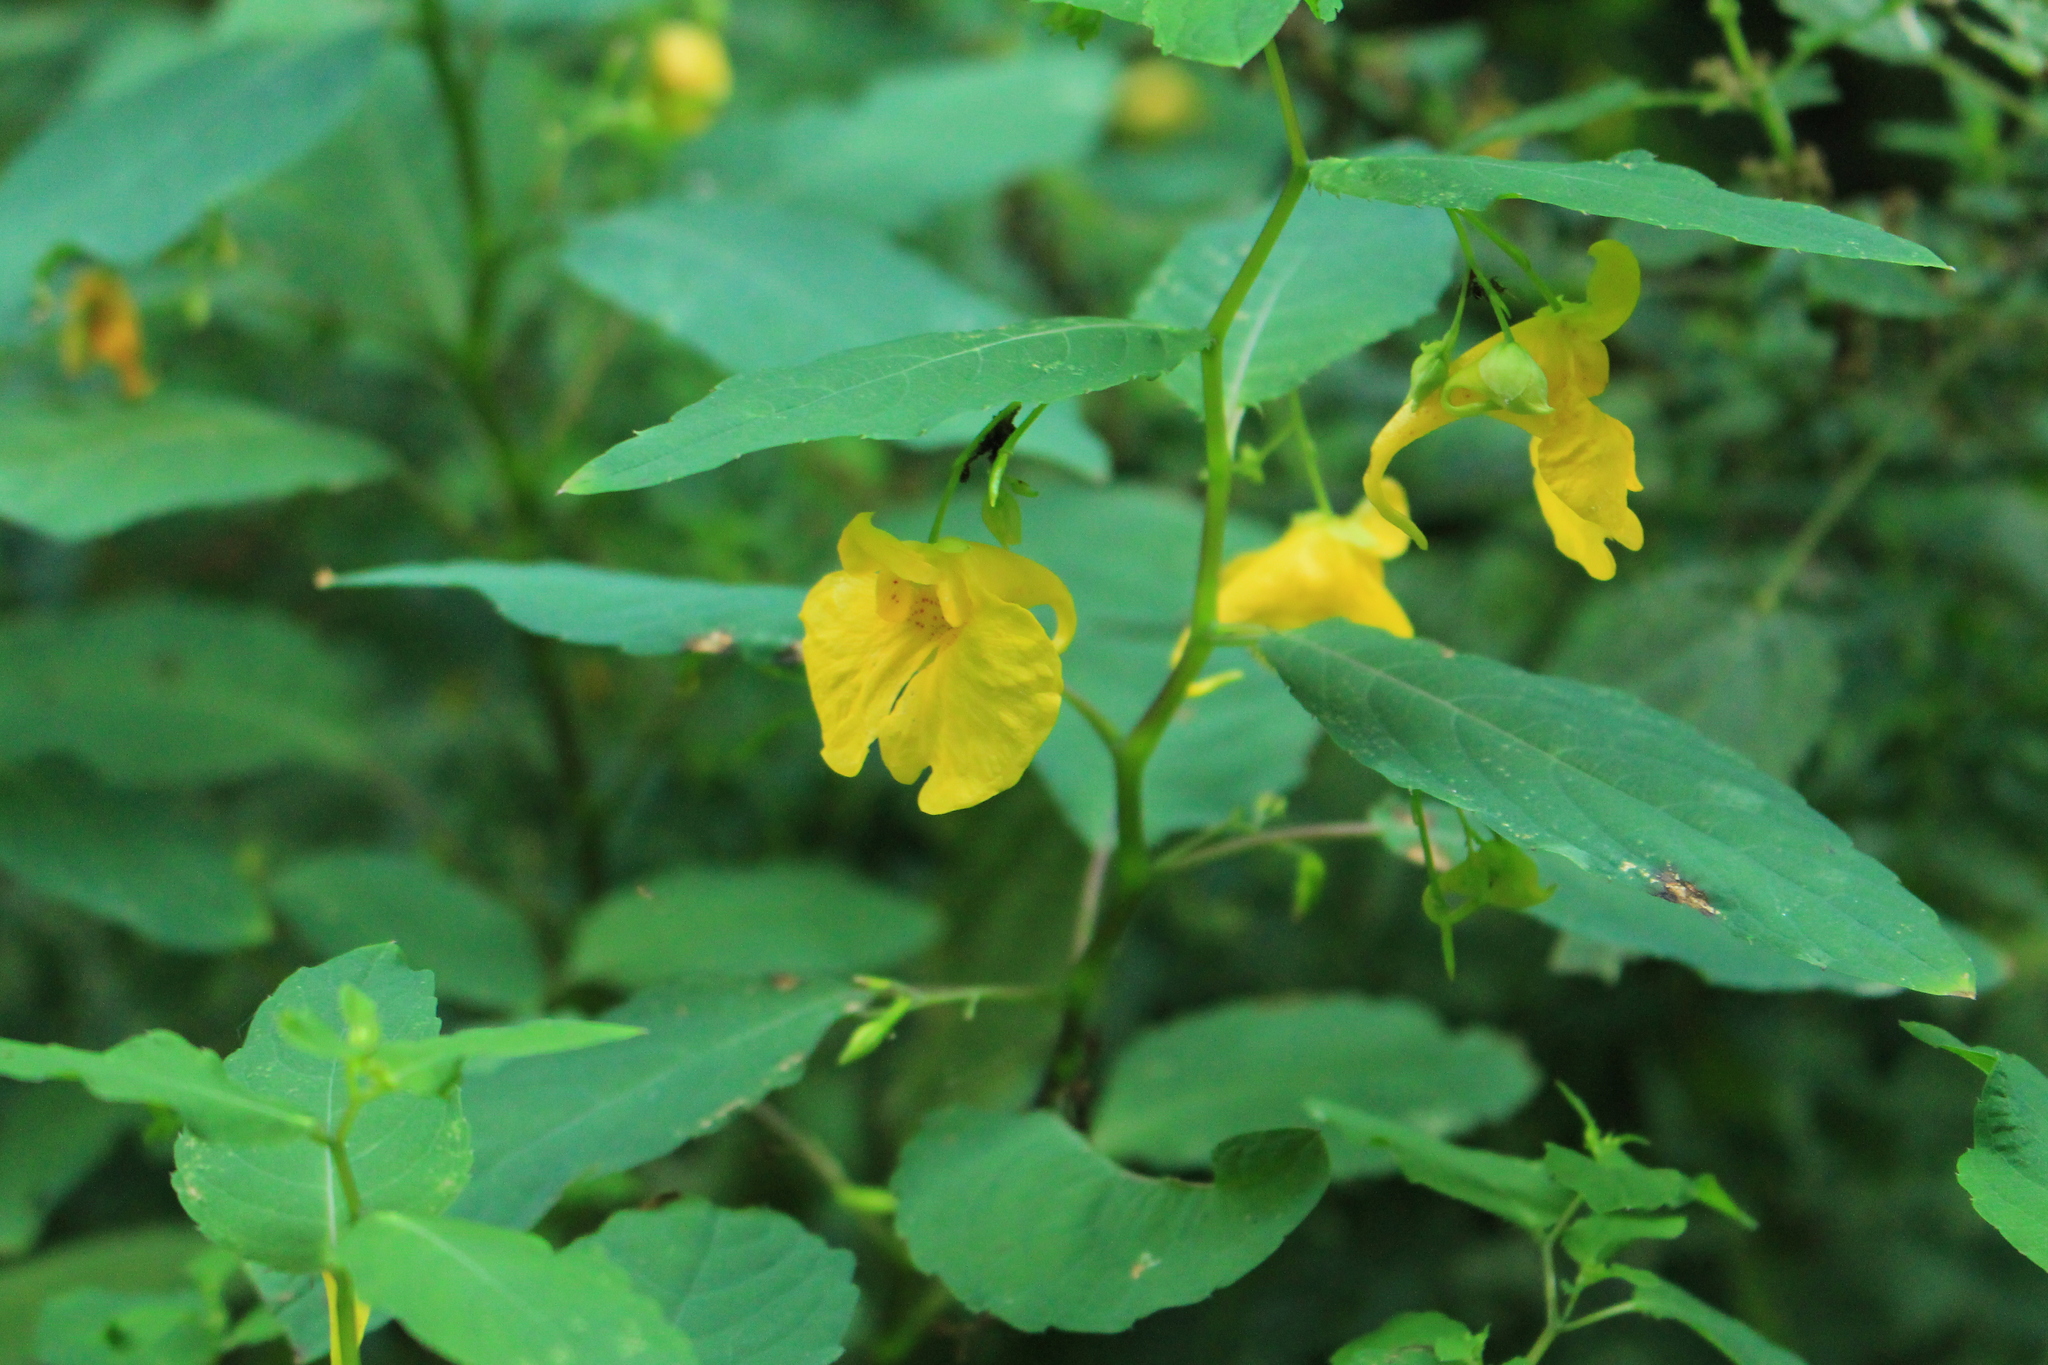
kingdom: Plantae
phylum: Tracheophyta
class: Magnoliopsida
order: Ericales
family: Balsaminaceae
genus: Impatiens
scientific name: Impatiens noli-tangere
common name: Touch-me-not balsam
